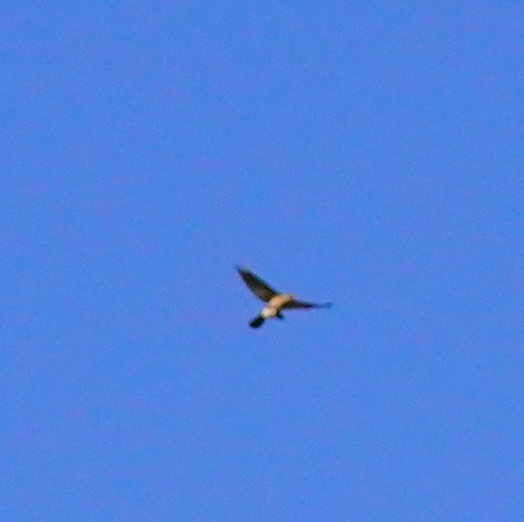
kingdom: Animalia
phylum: Chordata
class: Aves
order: Accipitriformes
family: Accipitridae
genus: Circus
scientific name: Circus cyaneus
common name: Hen harrier
